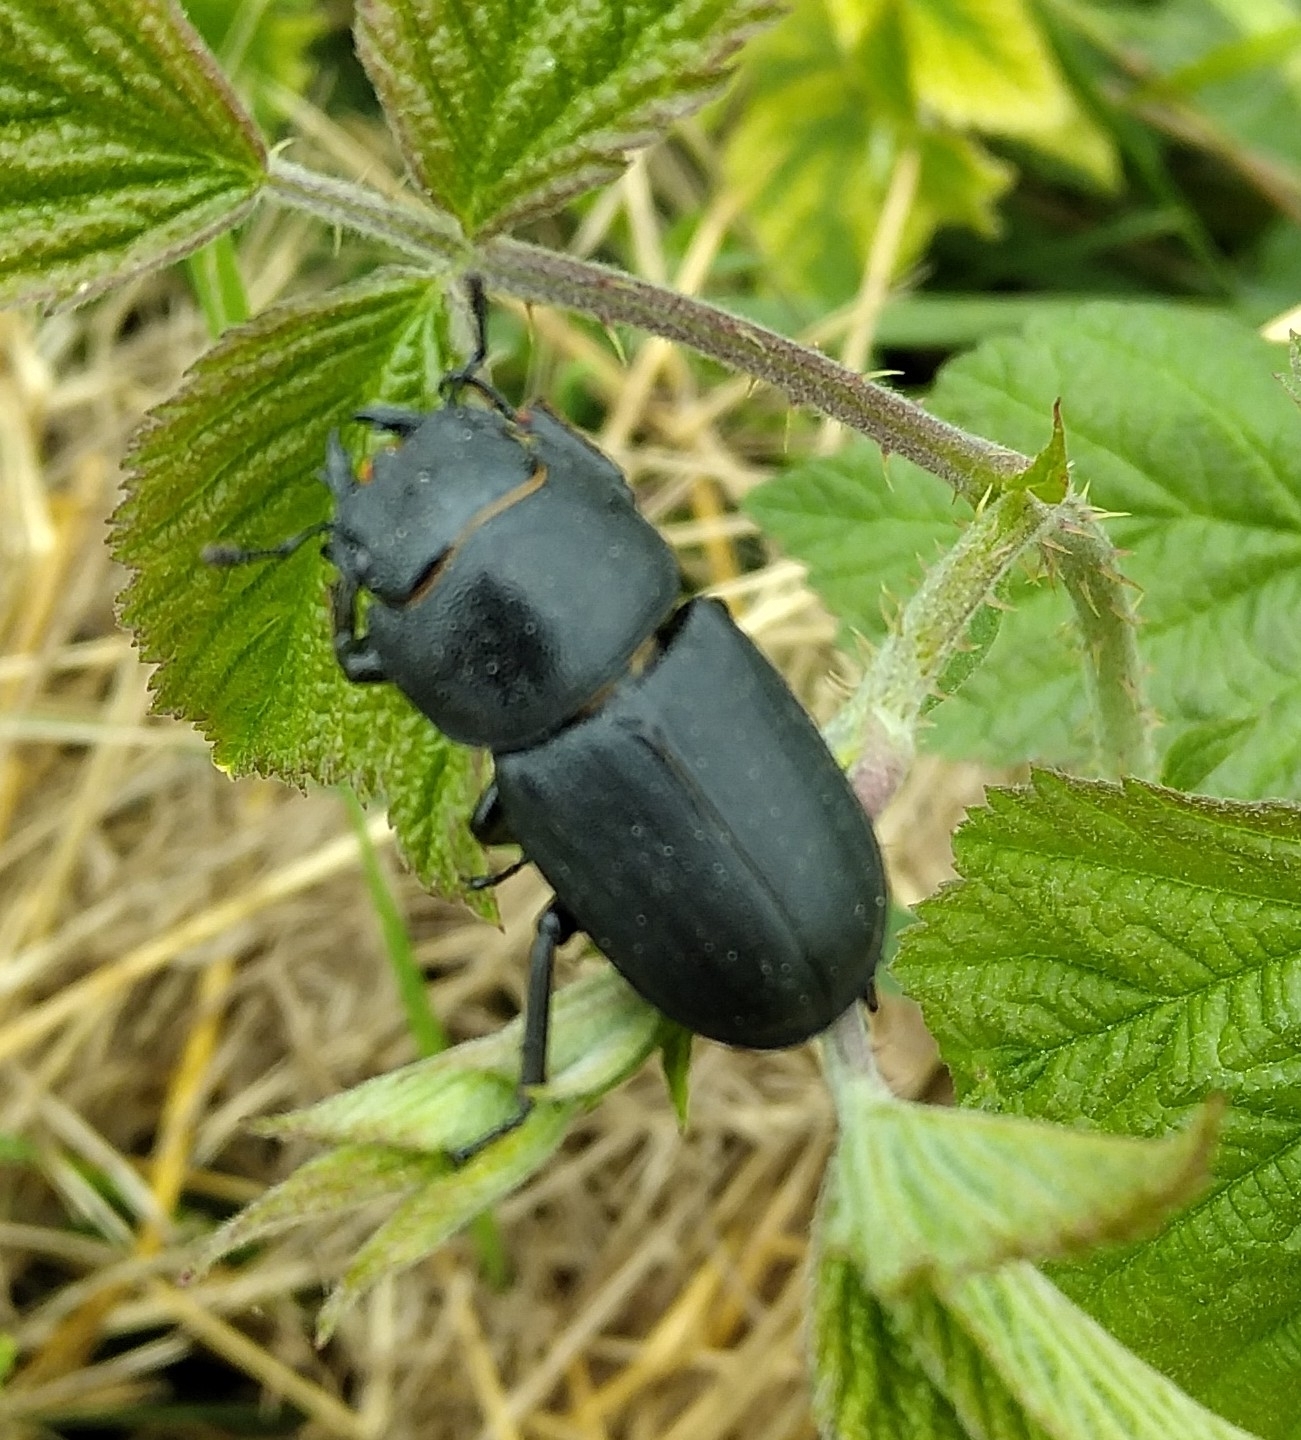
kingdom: Animalia
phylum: Arthropoda
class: Insecta
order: Coleoptera
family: Lucanidae
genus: Dorcus
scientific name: Dorcus parallelipipedus
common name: Lesser stag beetle
